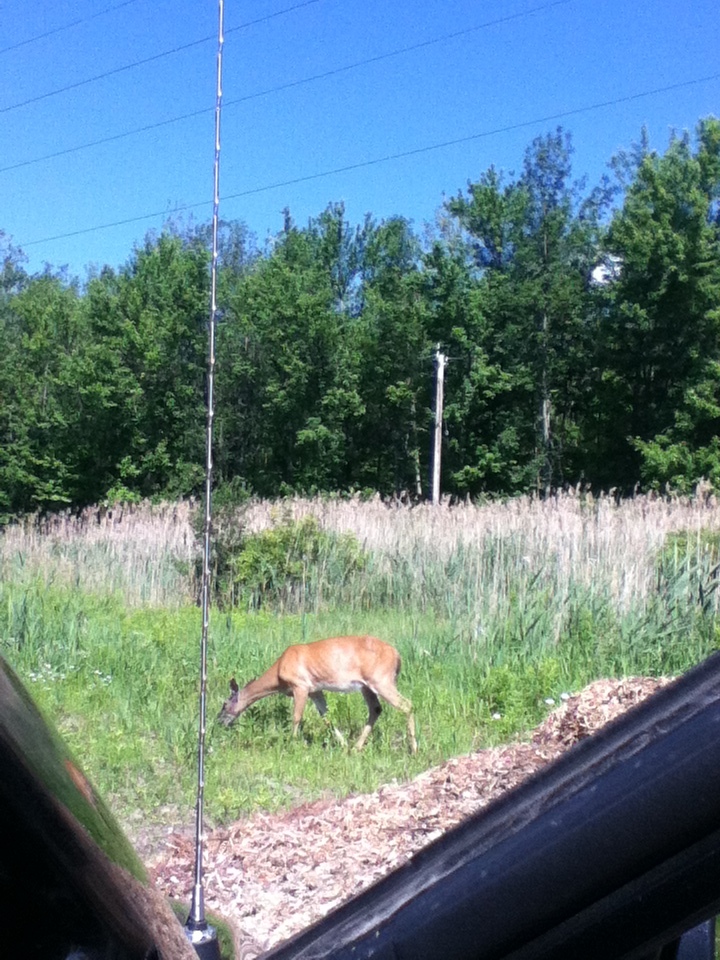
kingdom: Animalia
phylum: Chordata
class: Mammalia
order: Artiodactyla
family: Cervidae
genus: Odocoileus
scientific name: Odocoileus virginianus
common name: White-tailed deer
